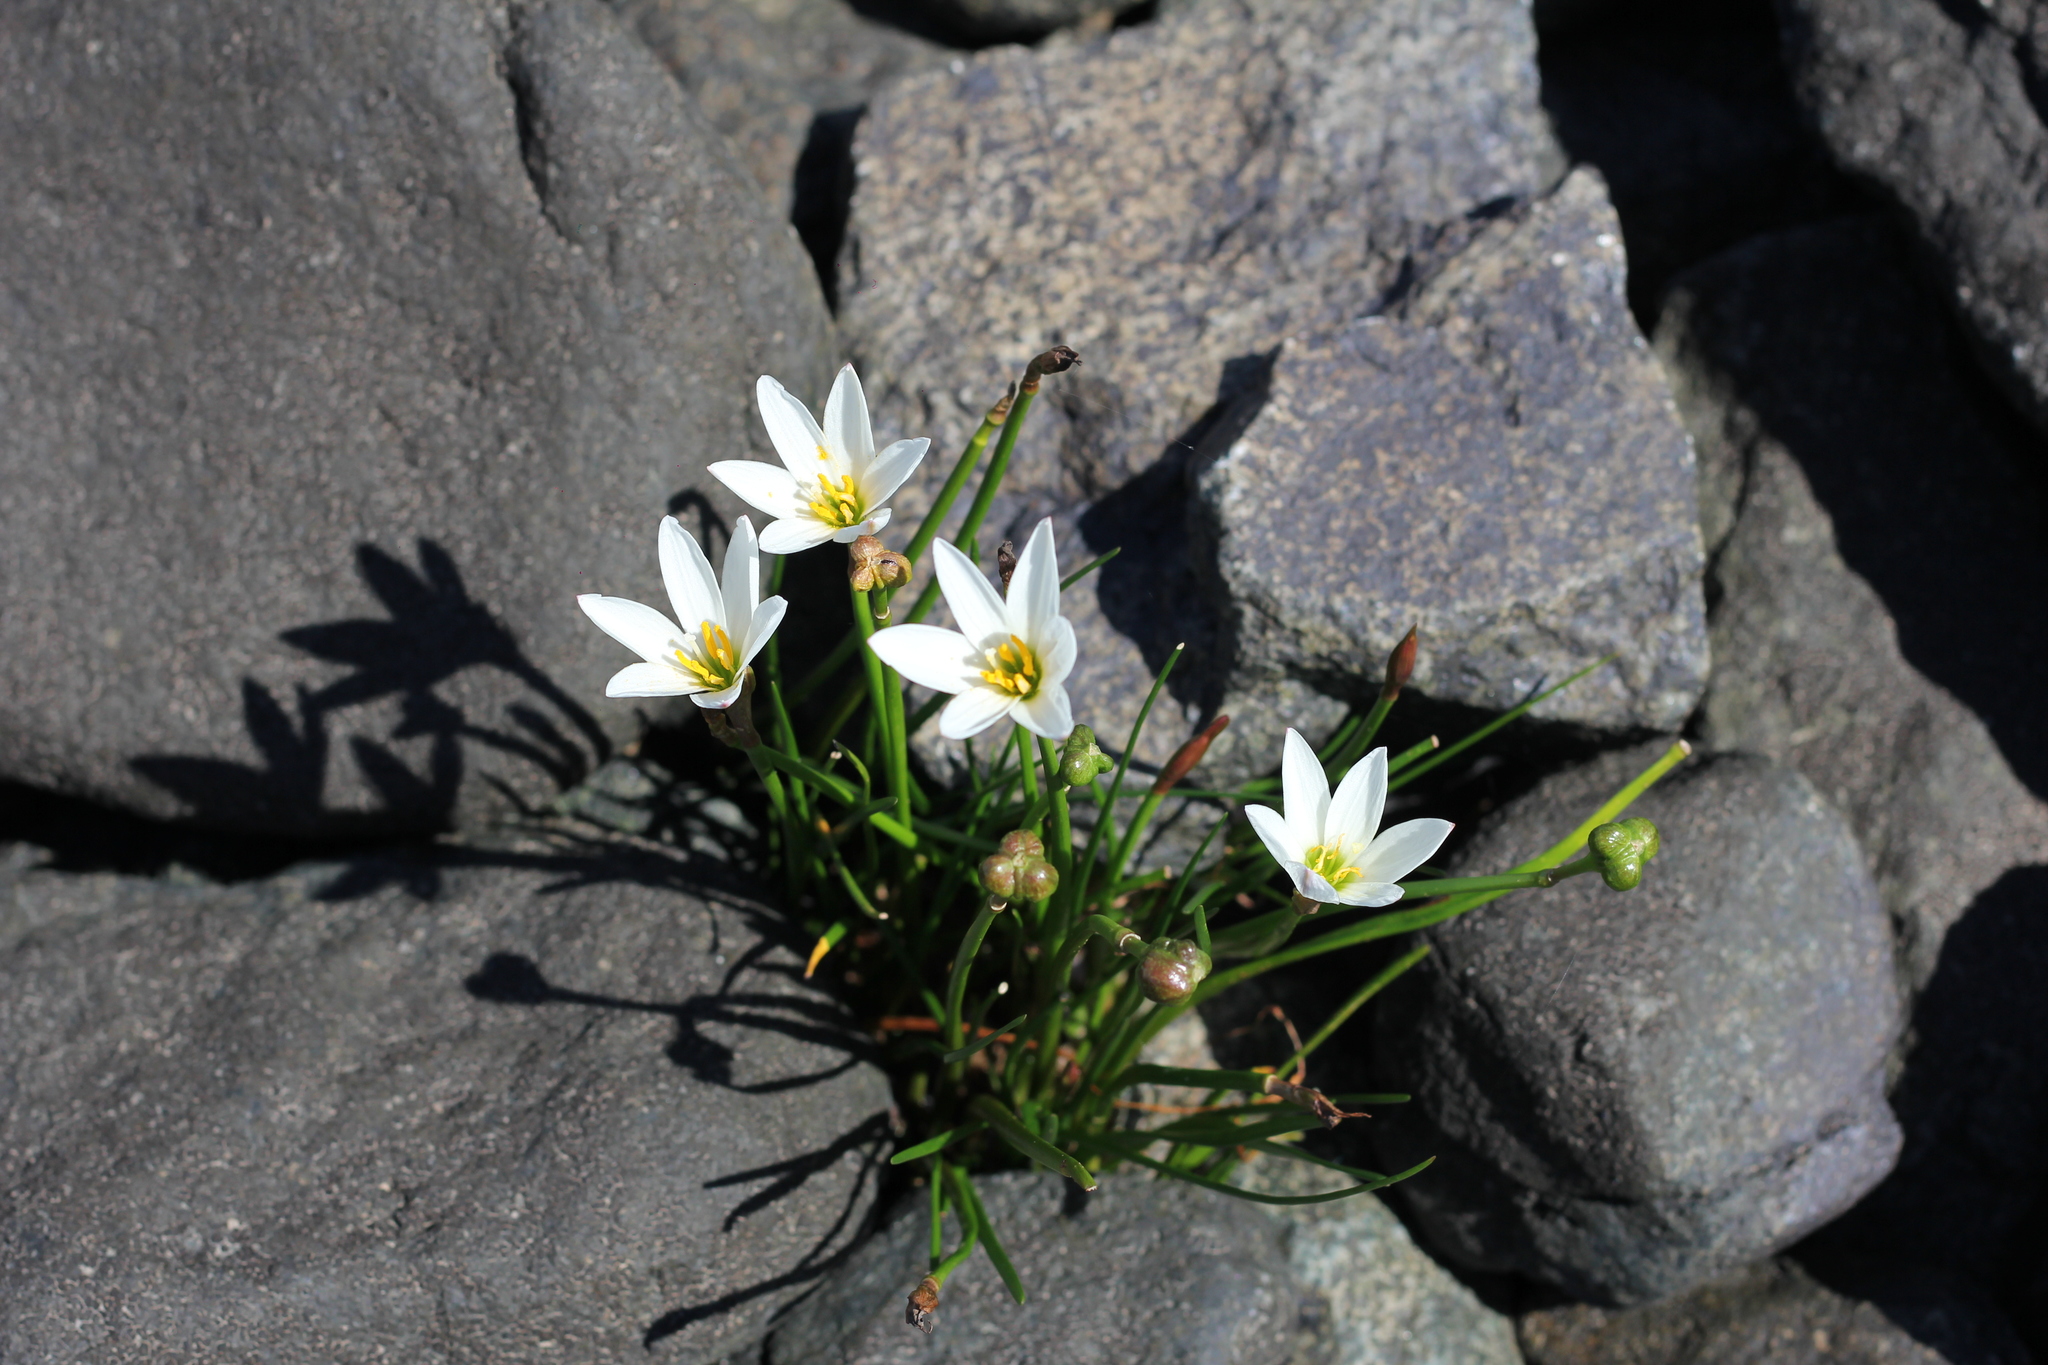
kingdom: Plantae
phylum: Tracheophyta
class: Liliopsida
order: Asparagales
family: Amaryllidaceae
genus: Zephyranthes
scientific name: Zephyranthes candida
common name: Autumn zephyrlily
